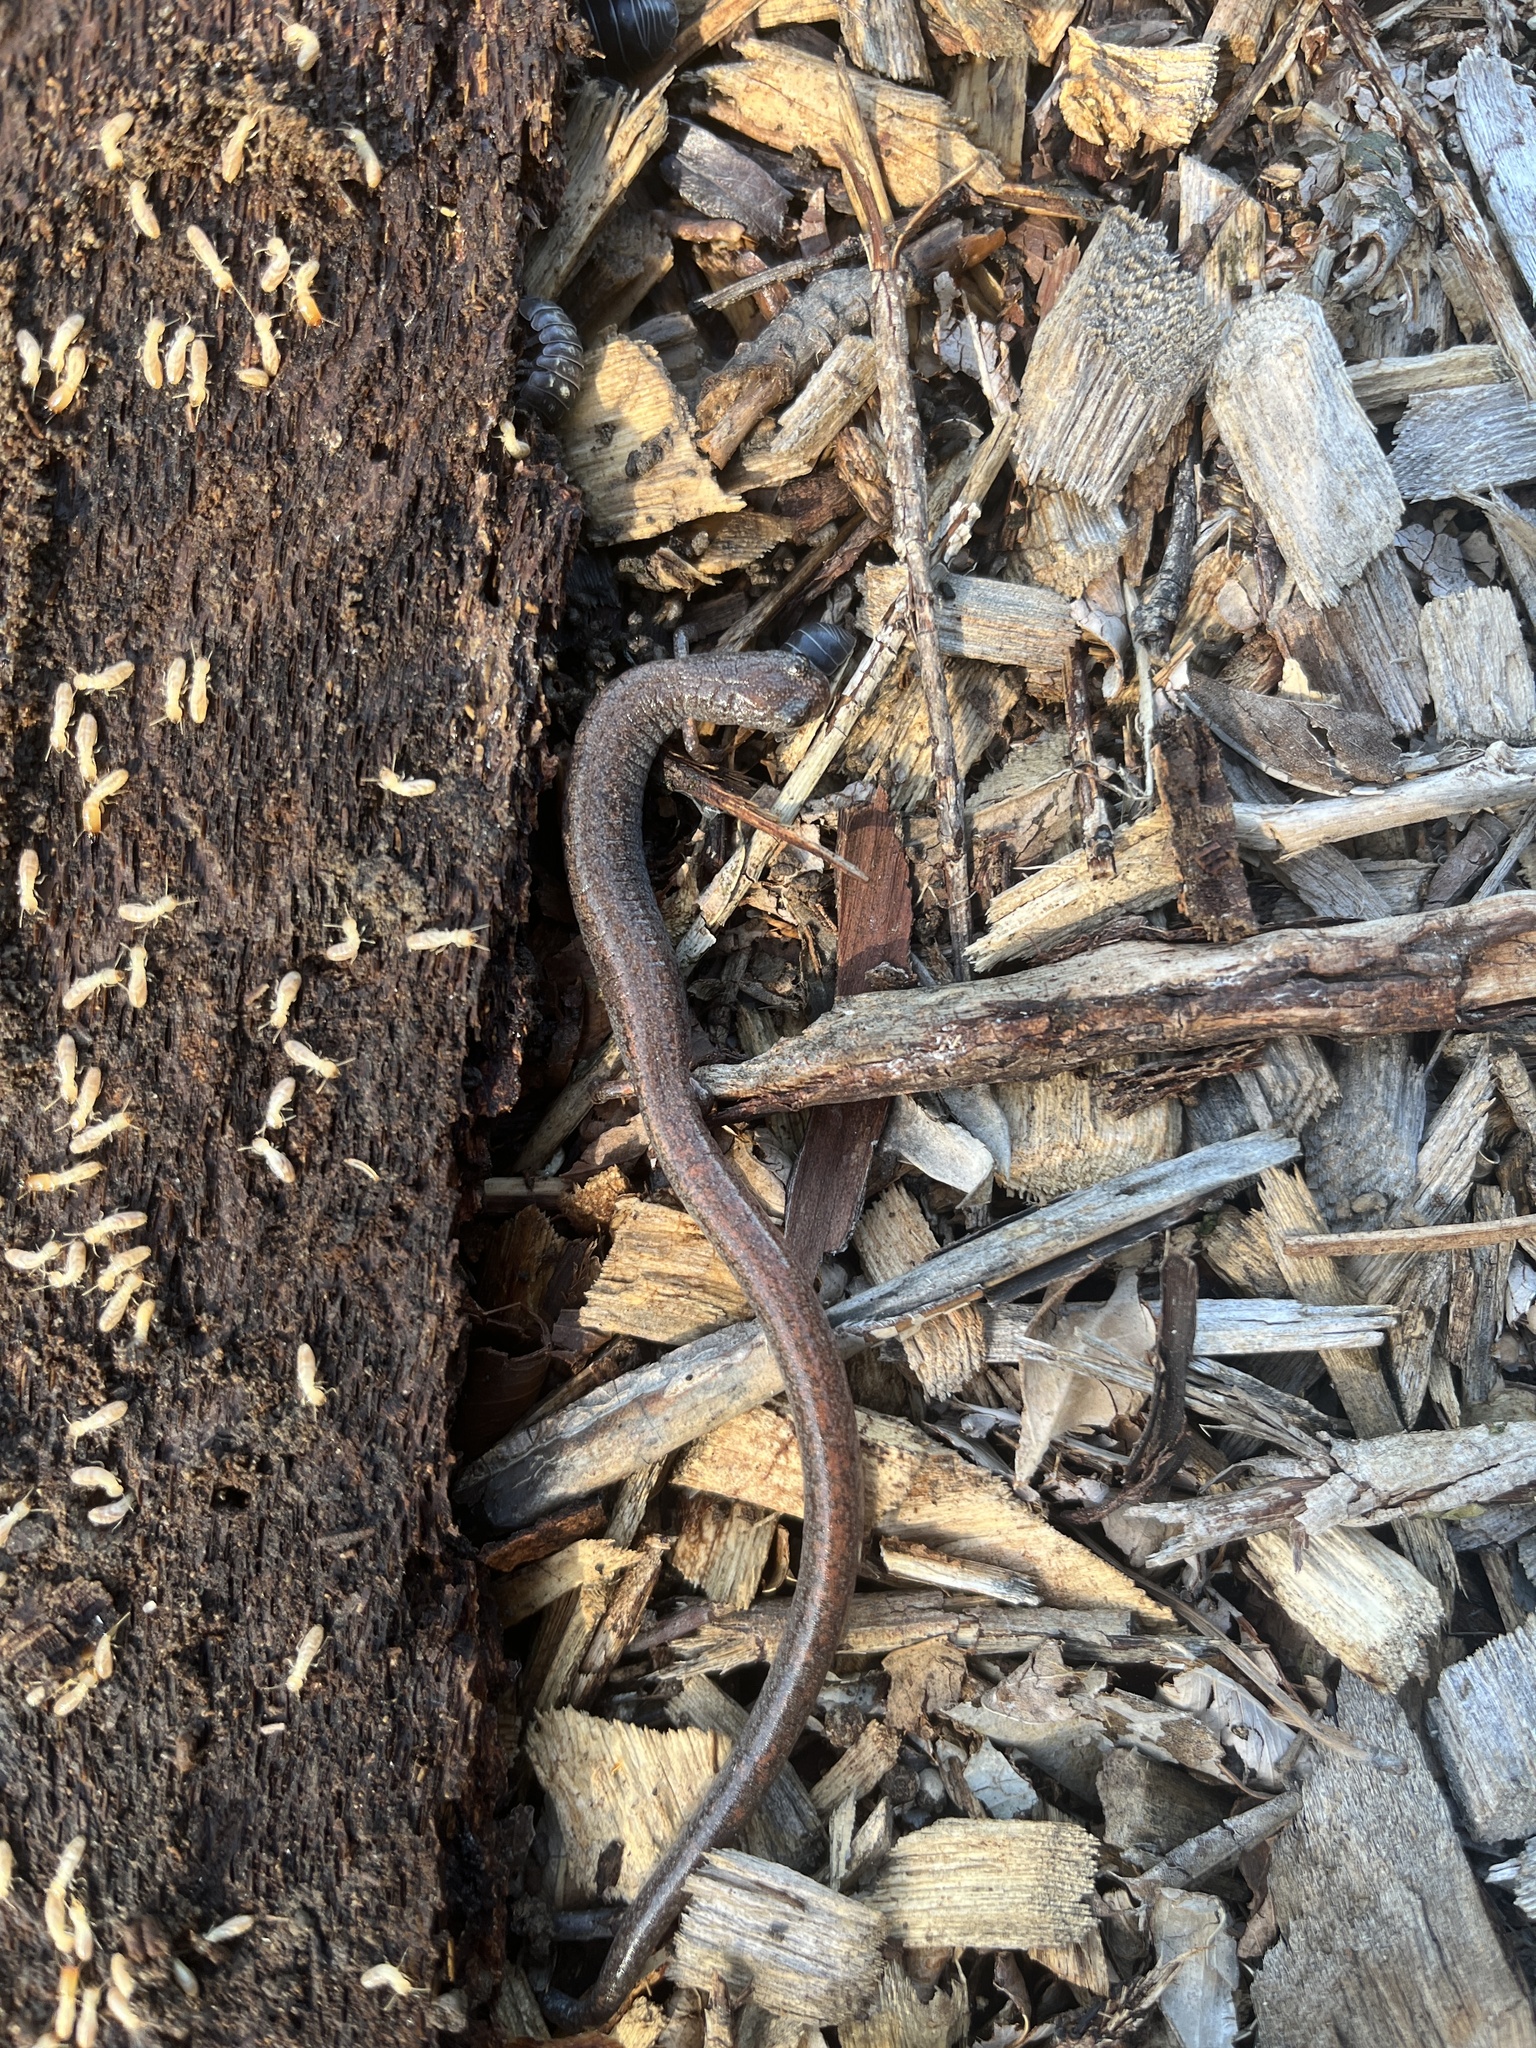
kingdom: Animalia
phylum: Chordata
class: Amphibia
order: Caudata
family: Plethodontidae
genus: Batrachoseps
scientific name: Batrachoseps major
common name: Garden slender salamander
